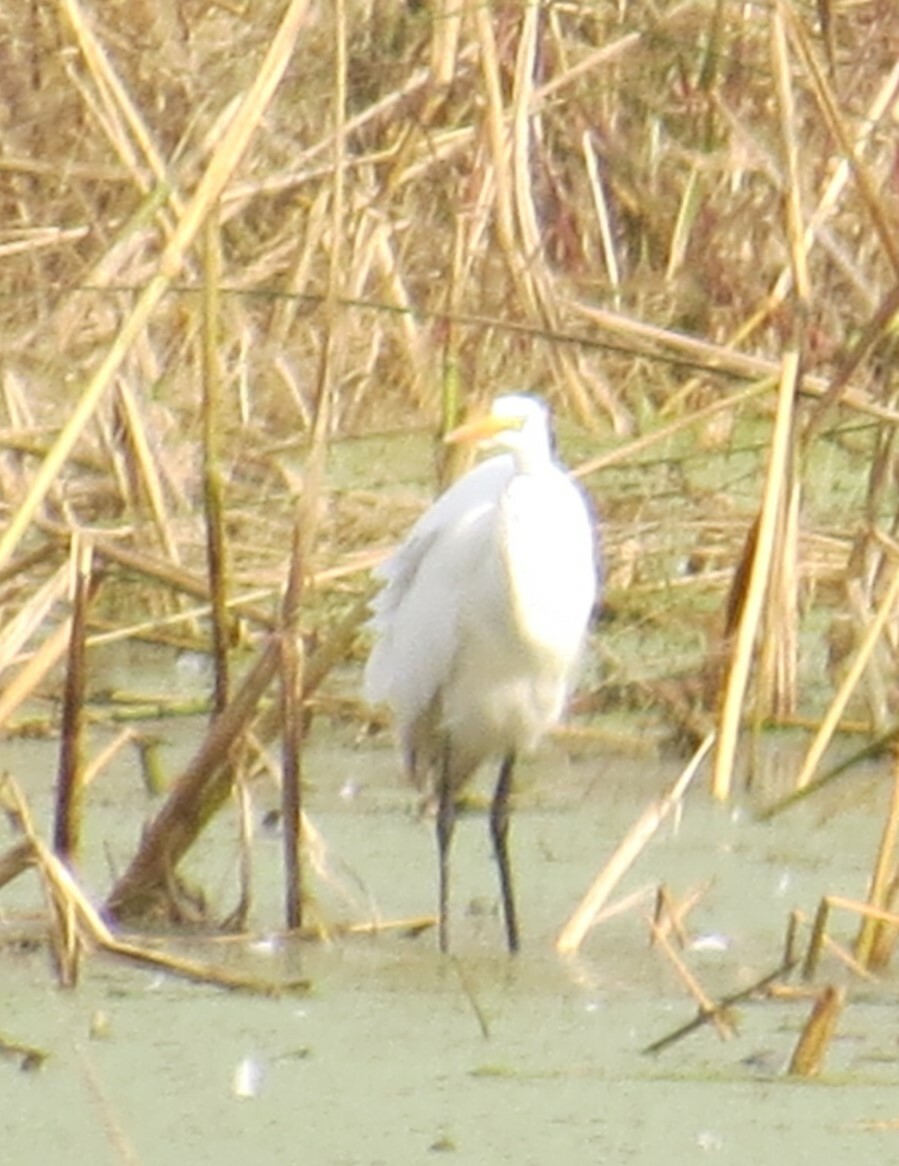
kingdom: Animalia
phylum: Chordata
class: Aves
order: Pelecaniformes
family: Ardeidae
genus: Ardea
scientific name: Ardea alba
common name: Great egret
